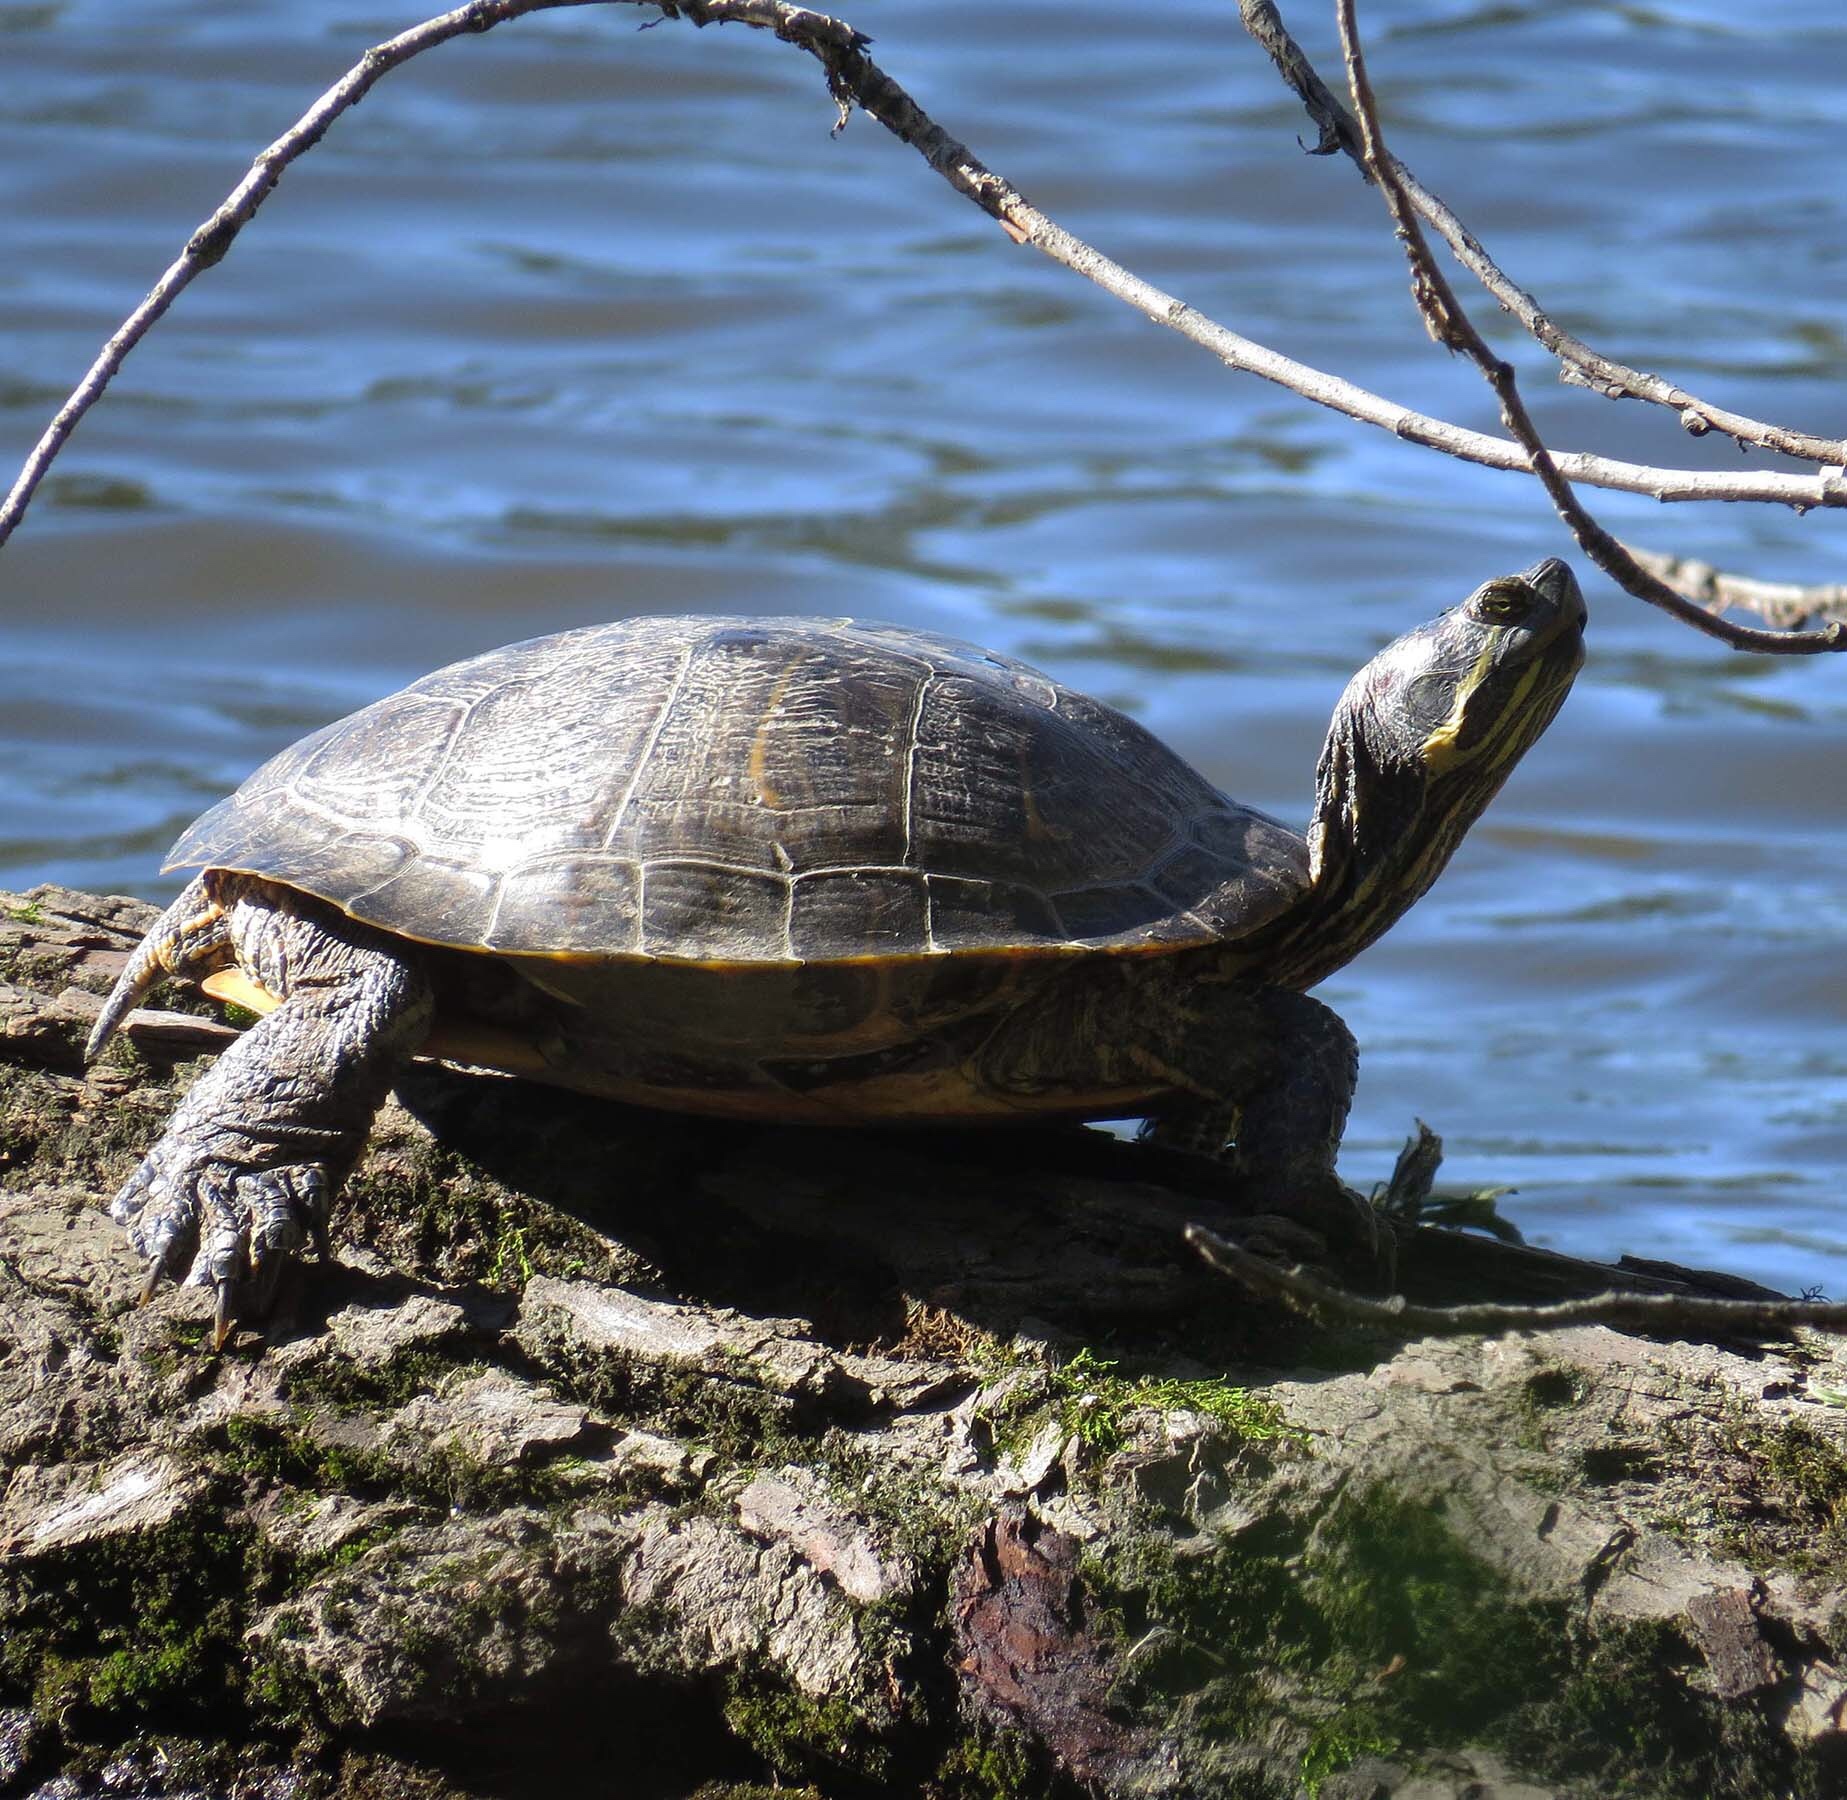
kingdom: Animalia
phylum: Chordata
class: Testudines
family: Emydidae
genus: Trachemys
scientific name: Trachemys scripta
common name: Slider
